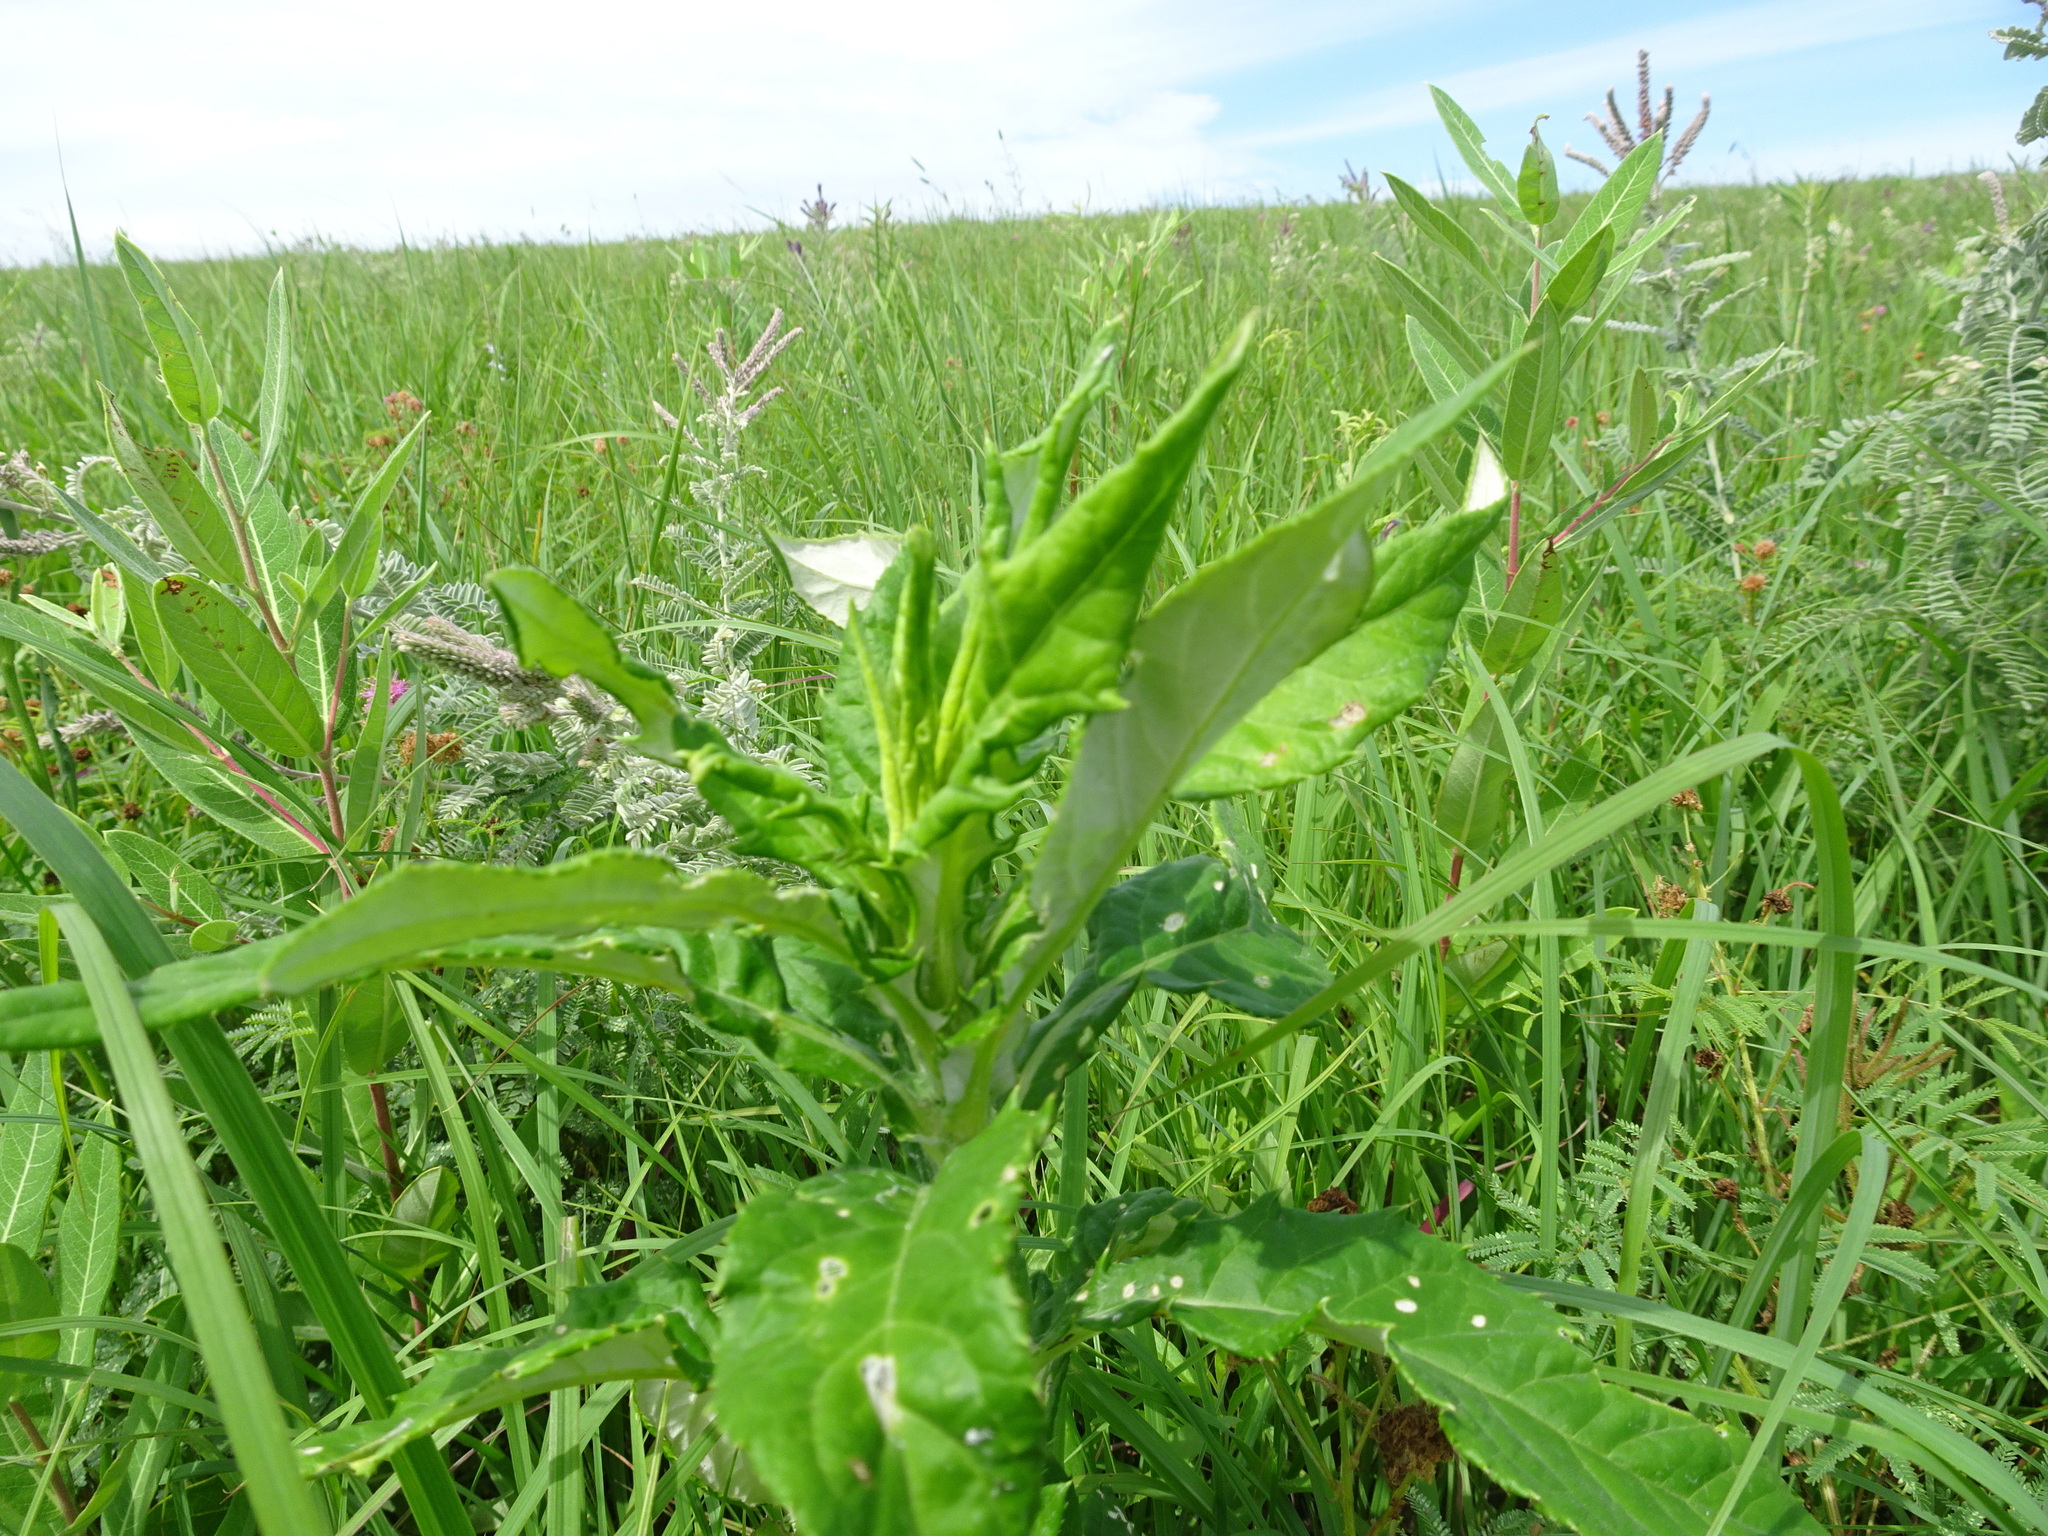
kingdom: Plantae
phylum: Tracheophyta
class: Magnoliopsida
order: Asterales
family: Asteraceae
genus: Cirsium
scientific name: Cirsium altissimum
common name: Roadside thistle
